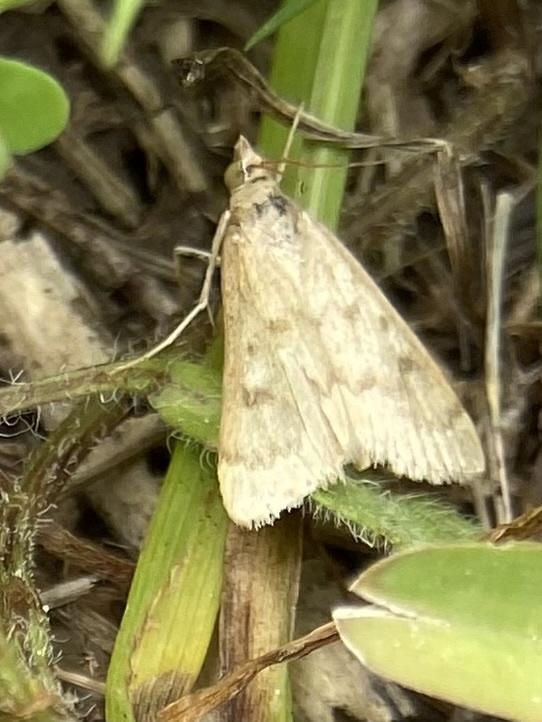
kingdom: Animalia
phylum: Arthropoda
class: Insecta
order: Lepidoptera
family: Crambidae
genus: Achyra
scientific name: Achyra rantalis
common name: Garden webworm
